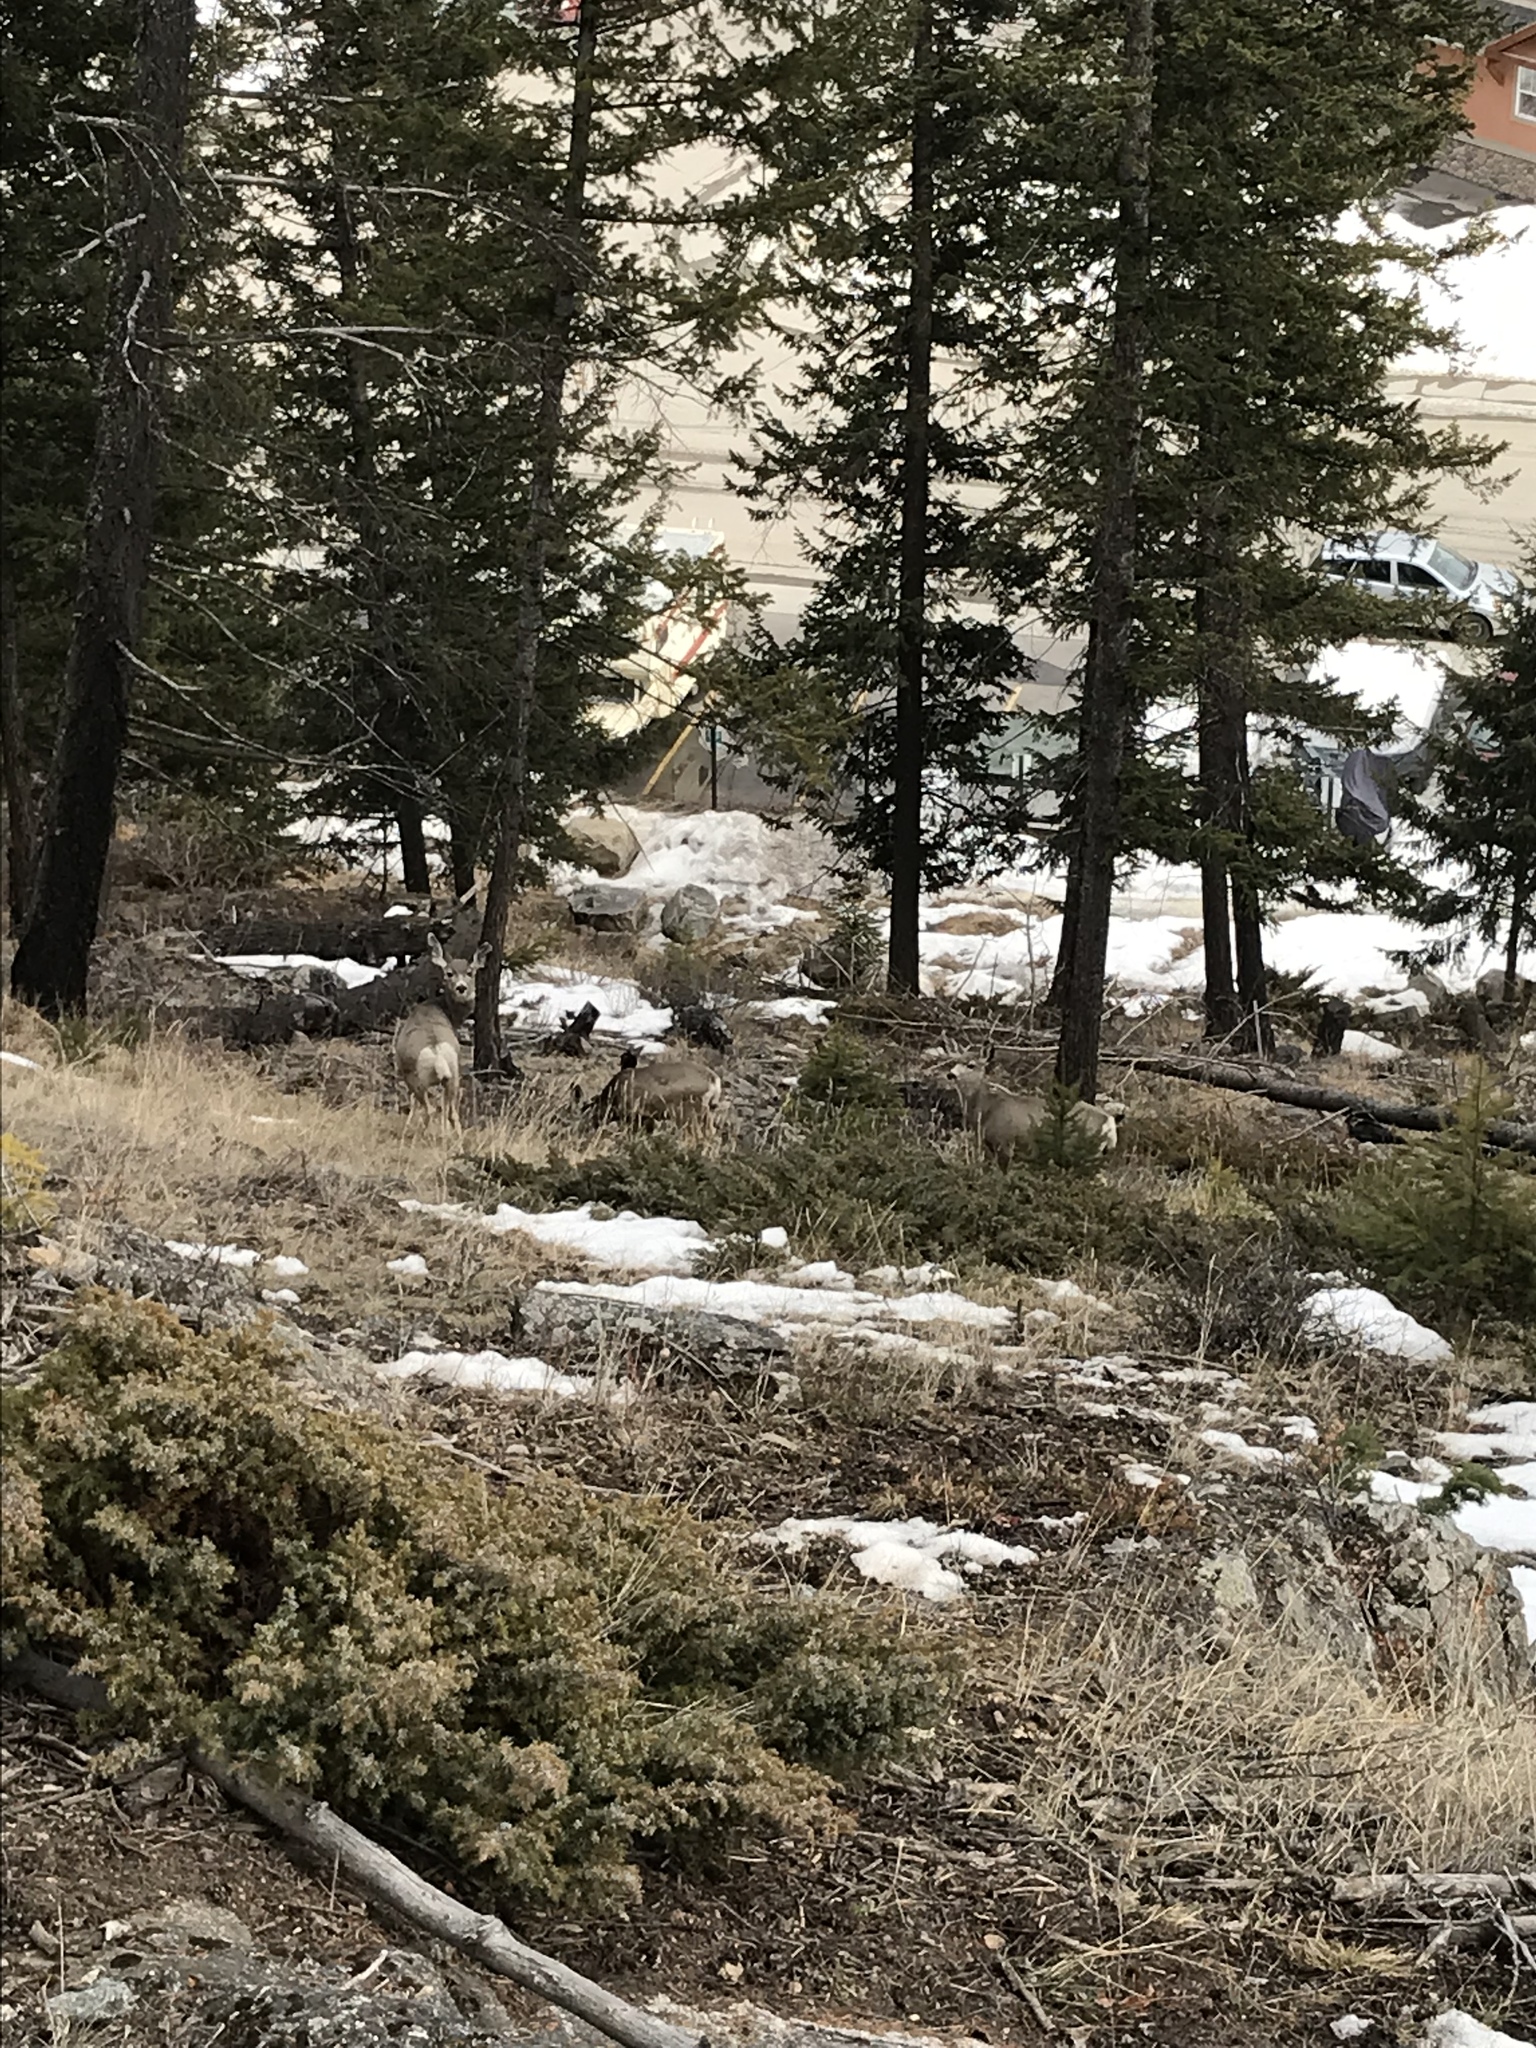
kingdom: Animalia
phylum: Chordata
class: Mammalia
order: Artiodactyla
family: Cervidae
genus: Odocoileus
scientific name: Odocoileus hemionus
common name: Mule deer
